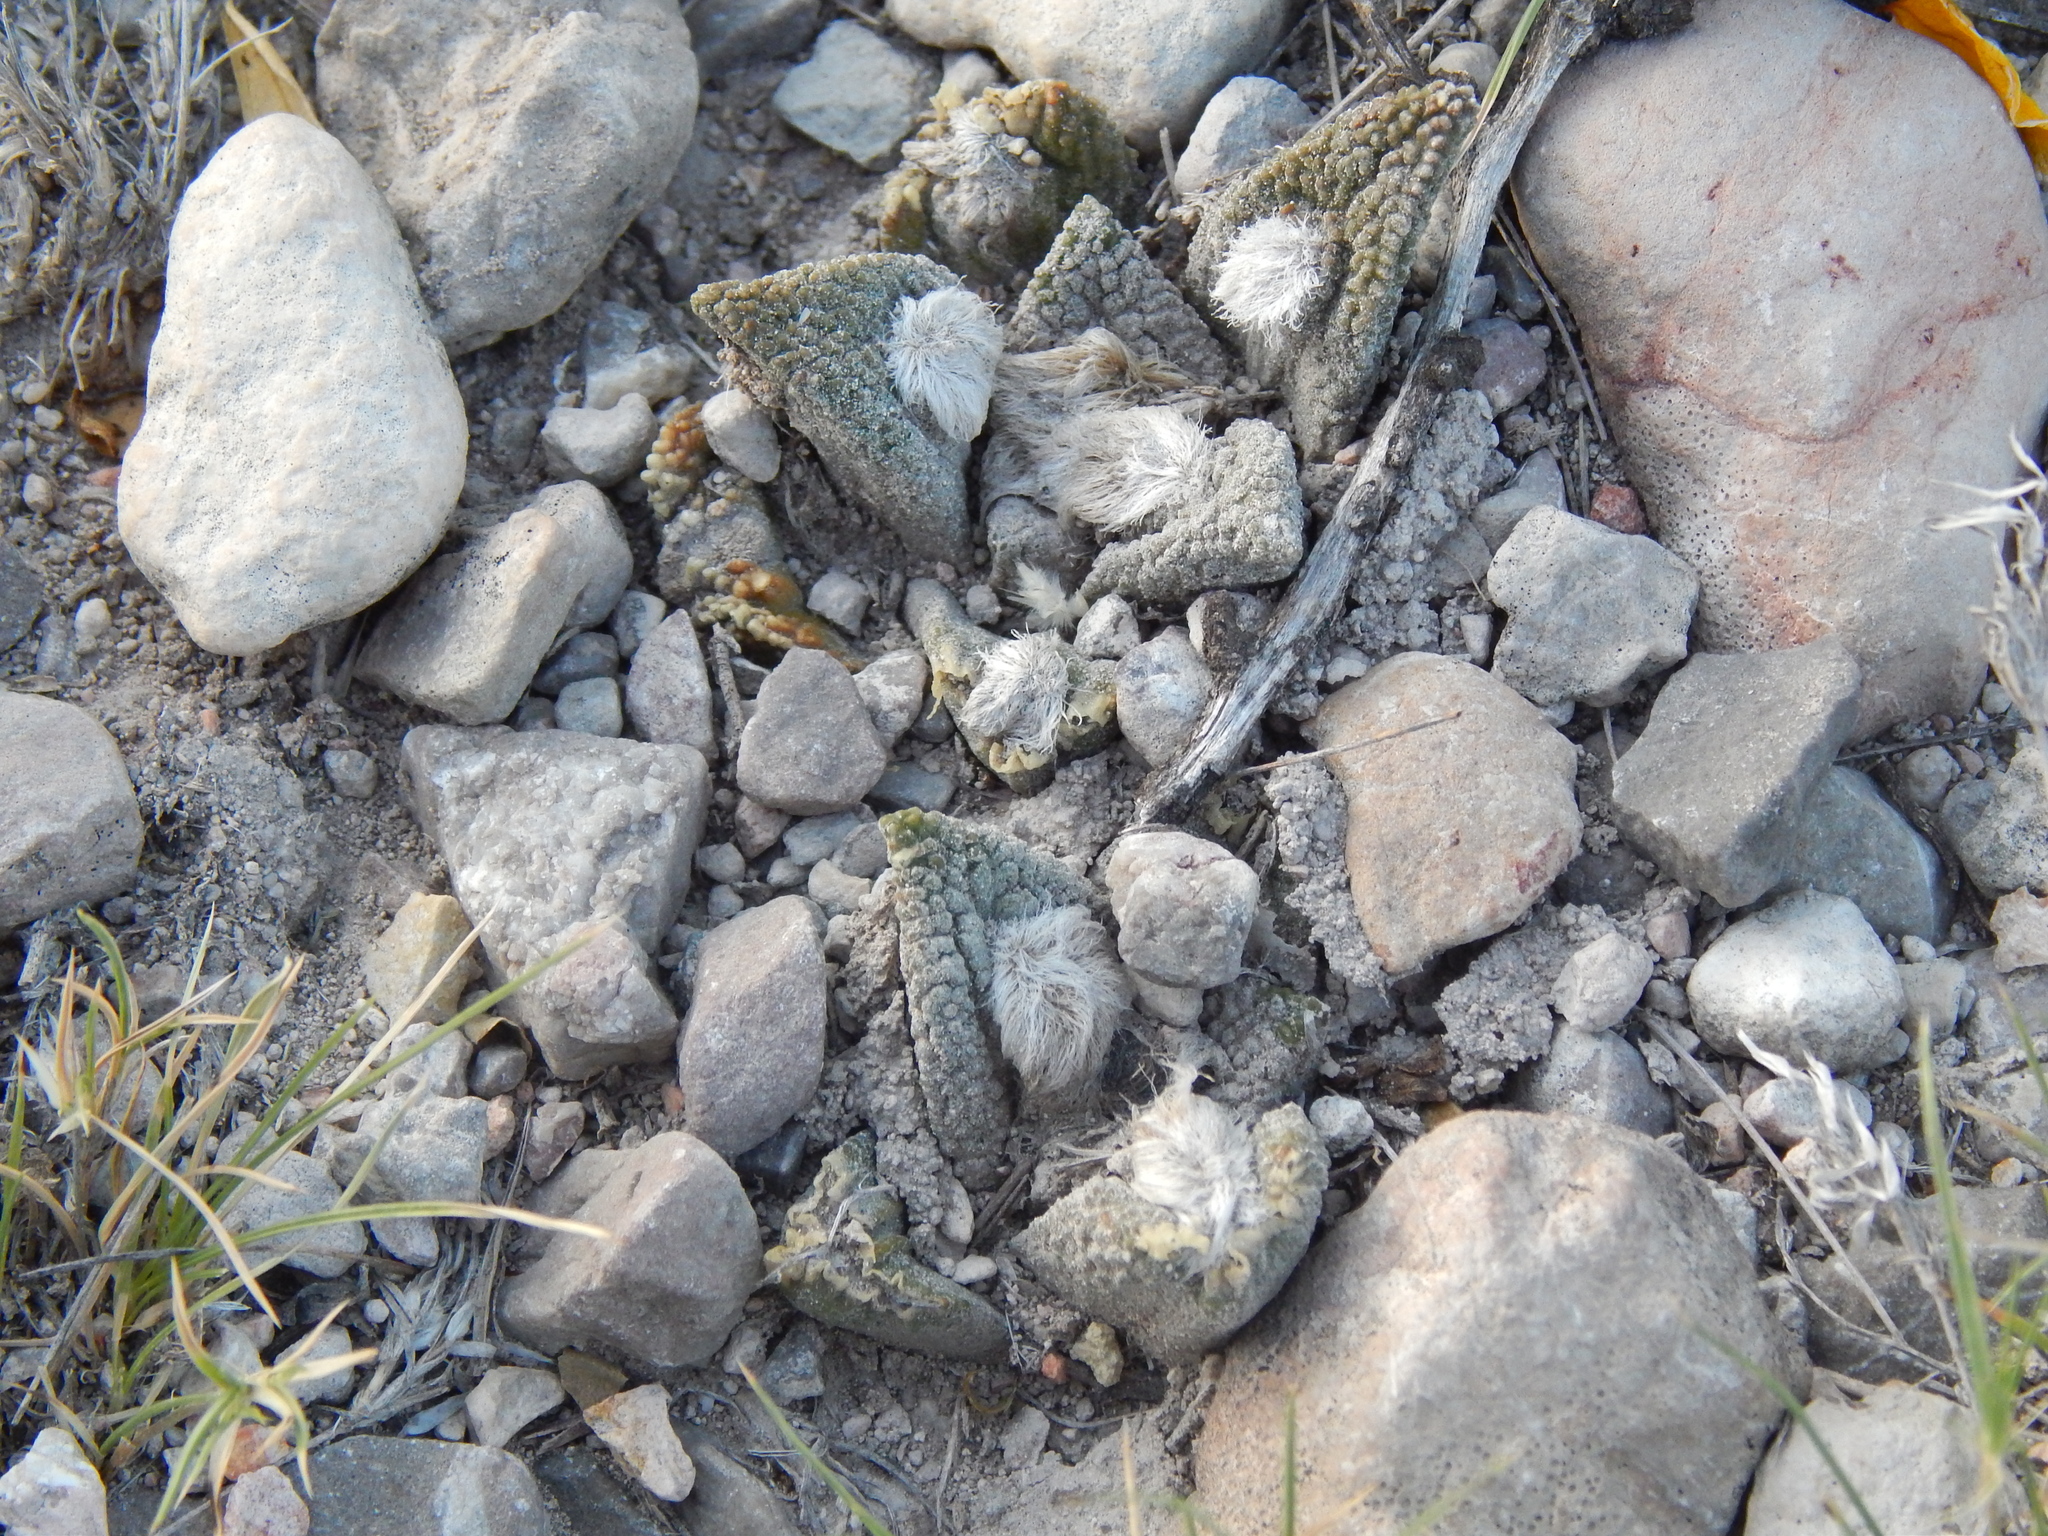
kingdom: Plantae
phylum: Tracheophyta
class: Magnoliopsida
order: Caryophyllales
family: Cactaceae
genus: Ariocarpus
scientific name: Ariocarpus bravoanus
